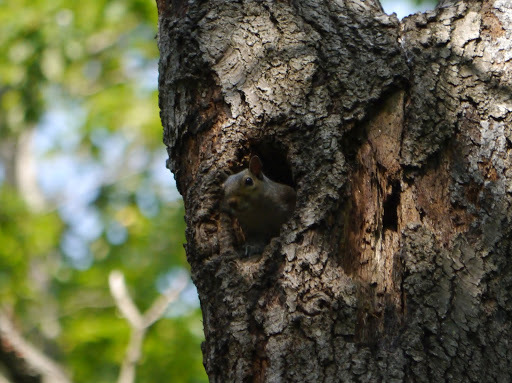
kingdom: Animalia
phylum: Chordata
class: Mammalia
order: Rodentia
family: Sciuridae
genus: Sciurus
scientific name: Sciurus carolinensis
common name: Eastern gray squirrel
